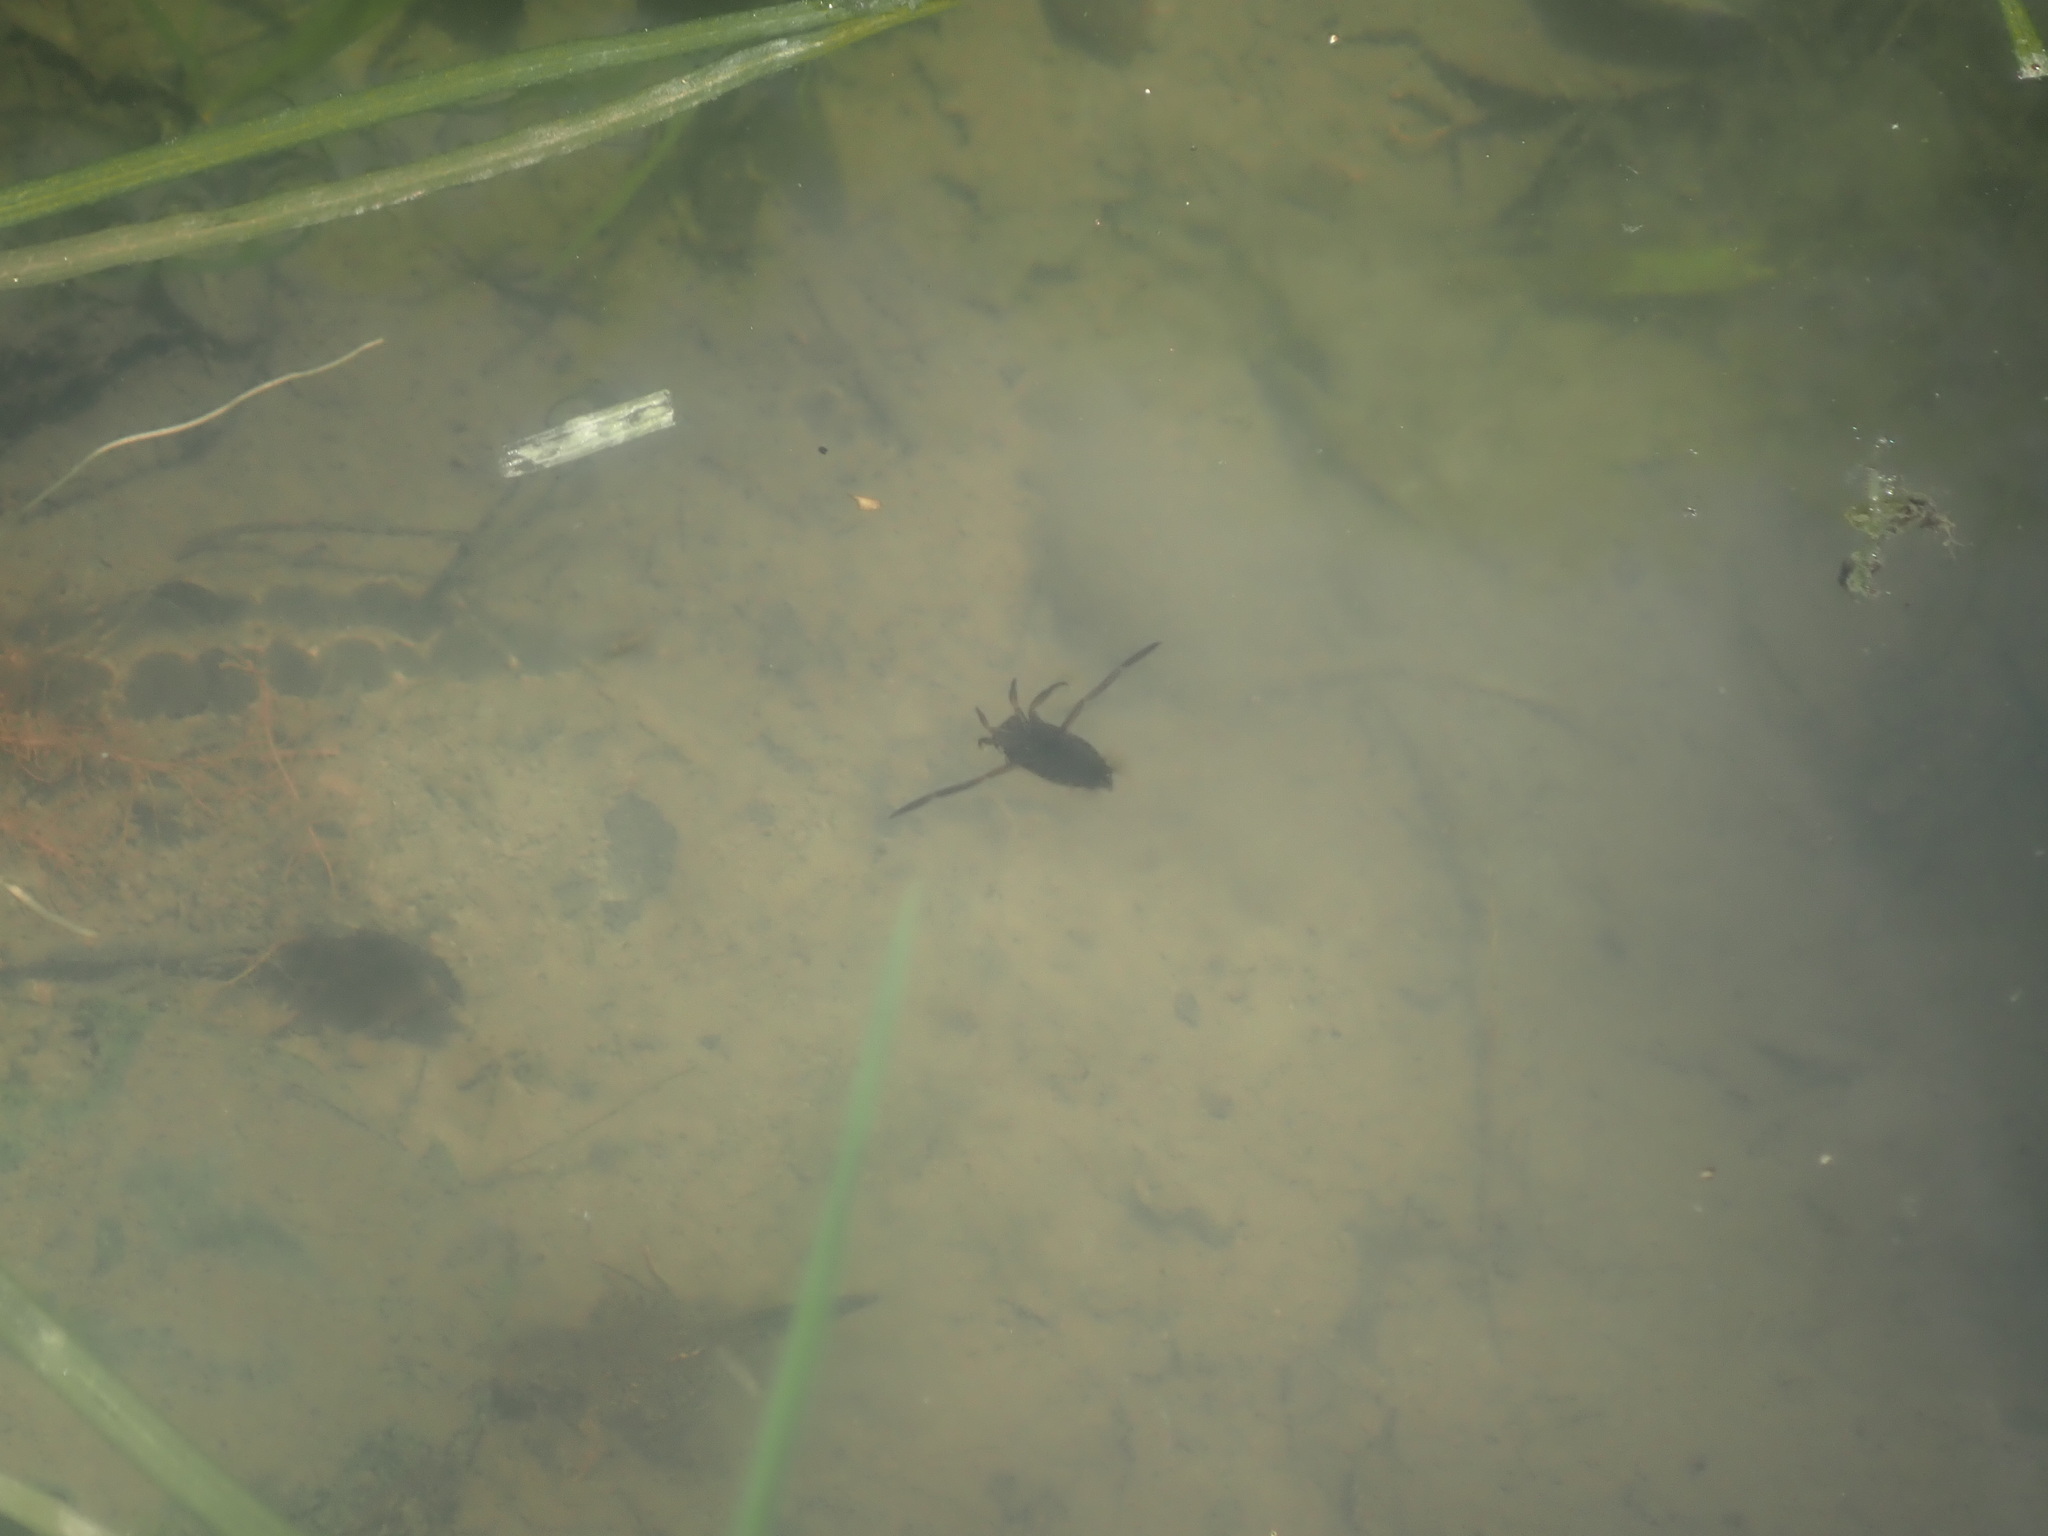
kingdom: Animalia
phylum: Arthropoda
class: Insecta
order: Hemiptera
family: Notonectidae
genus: Notonecta
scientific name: Notonecta
